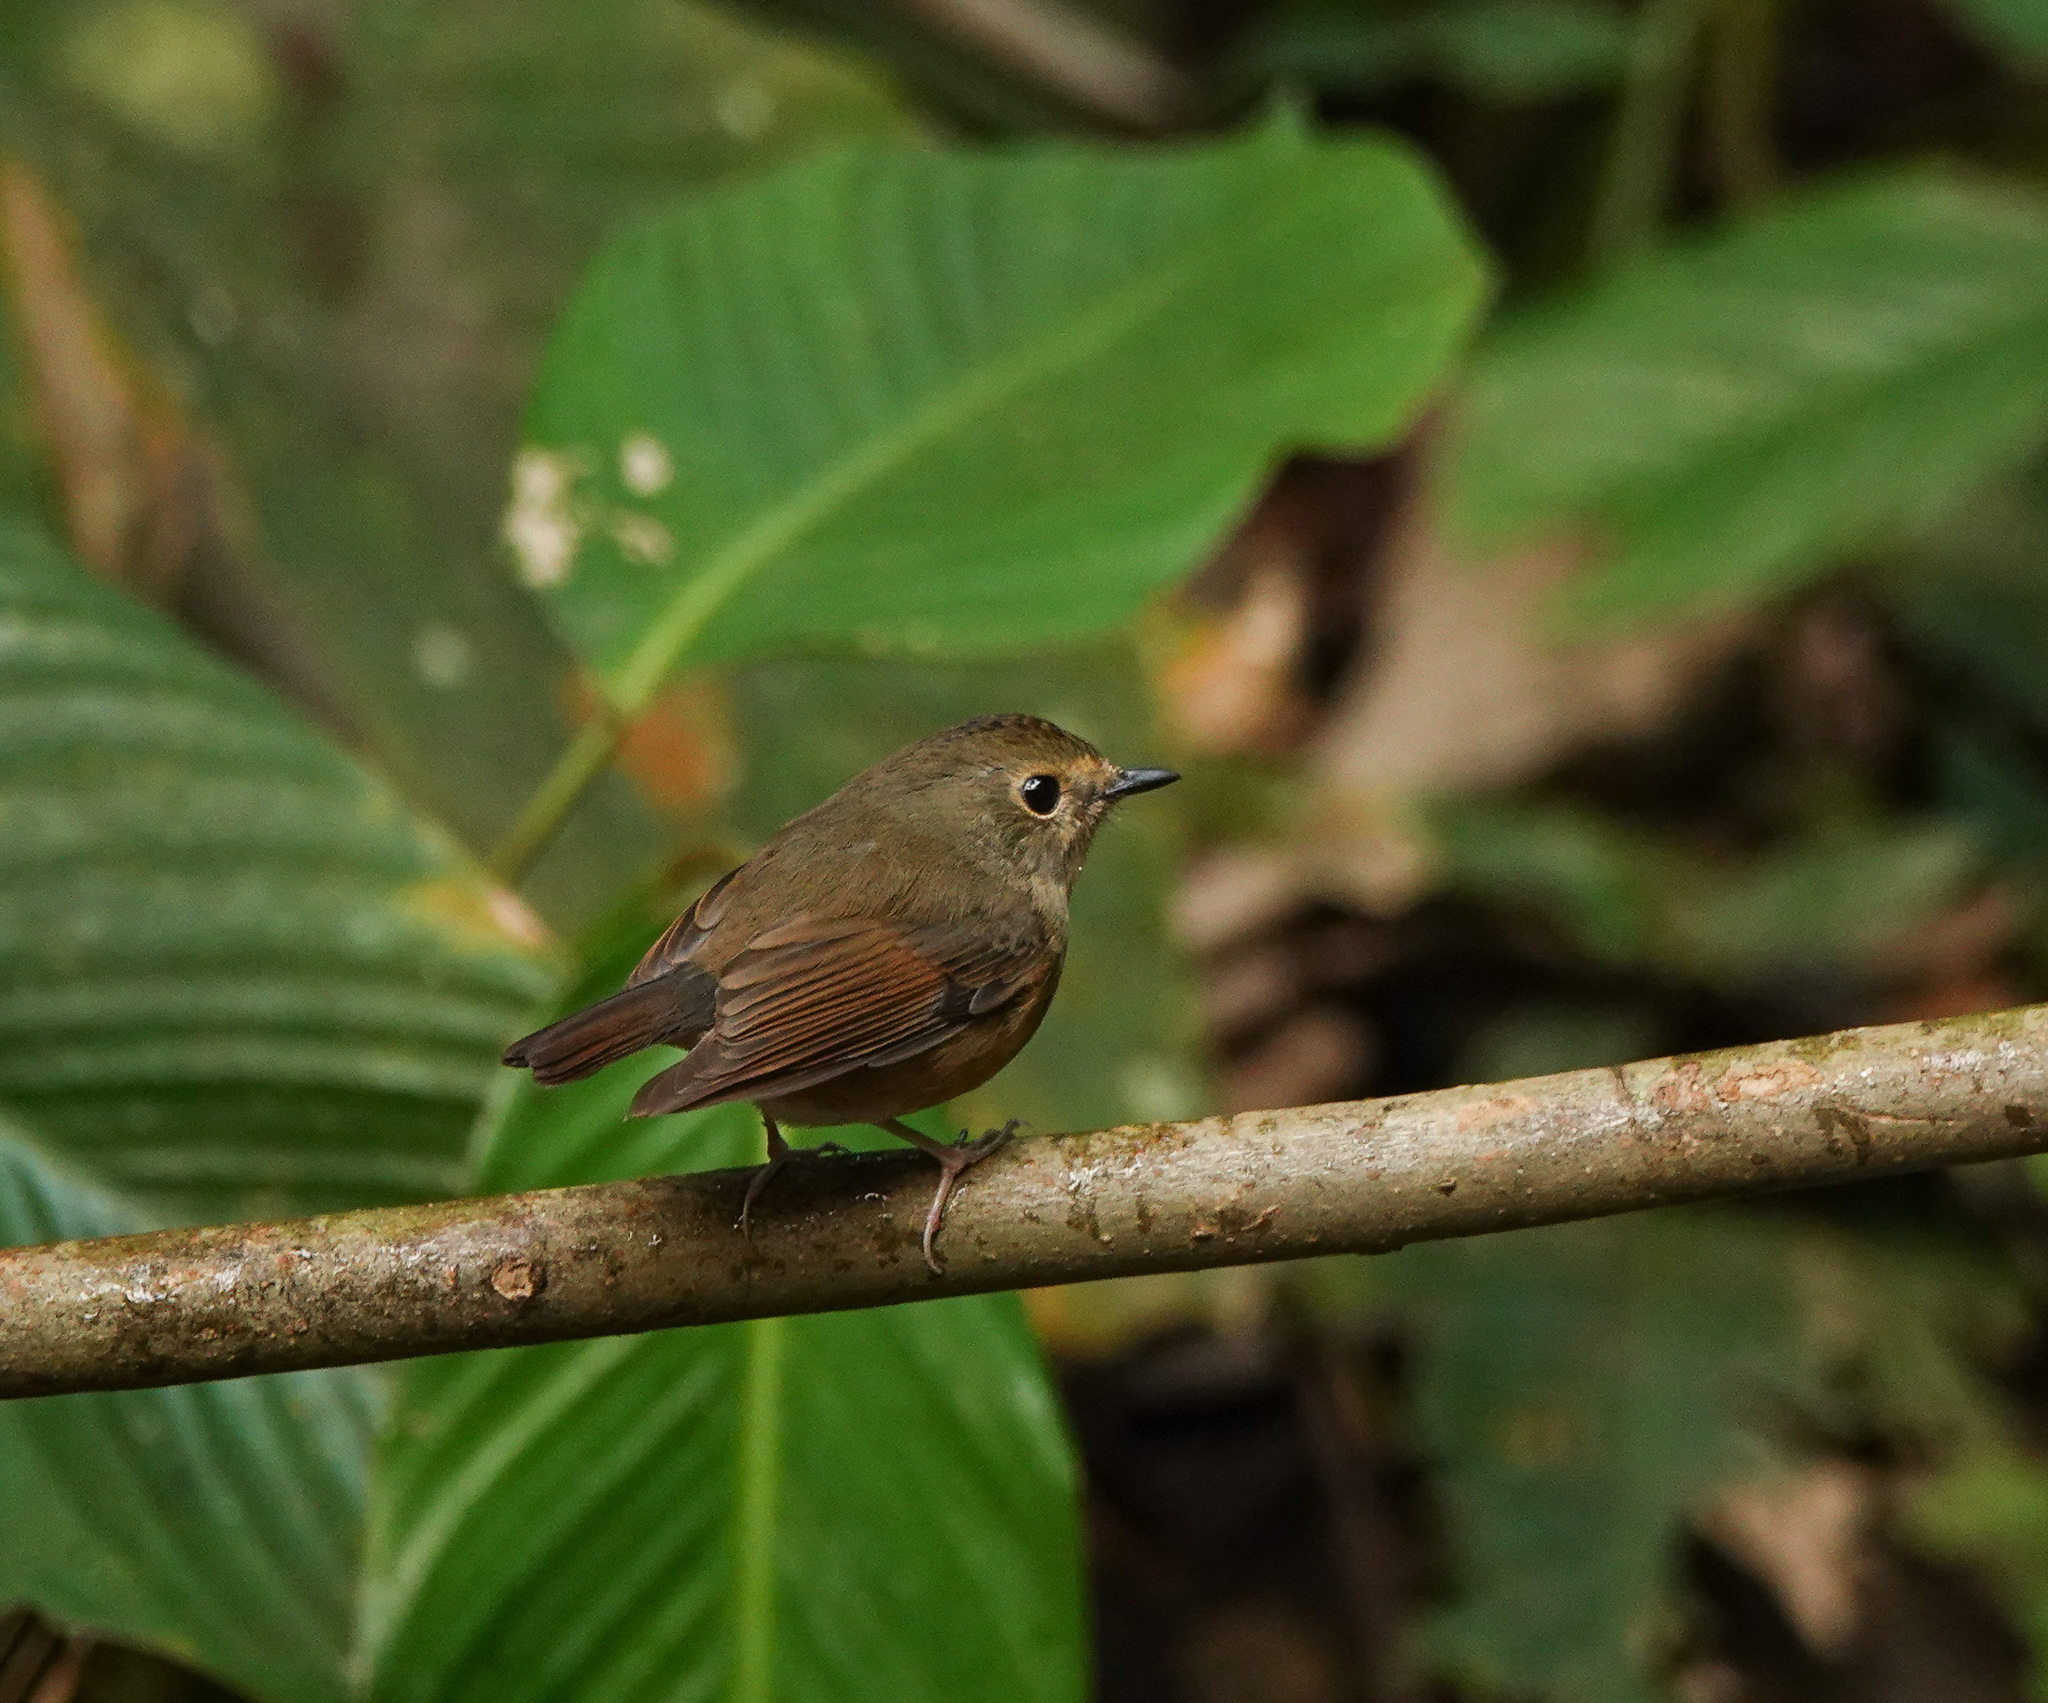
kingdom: Animalia
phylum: Chordata
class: Aves
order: Passeriformes
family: Muscicapidae
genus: Ficedula
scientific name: Ficedula hyperythra
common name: Snowy-browed flycatcher
